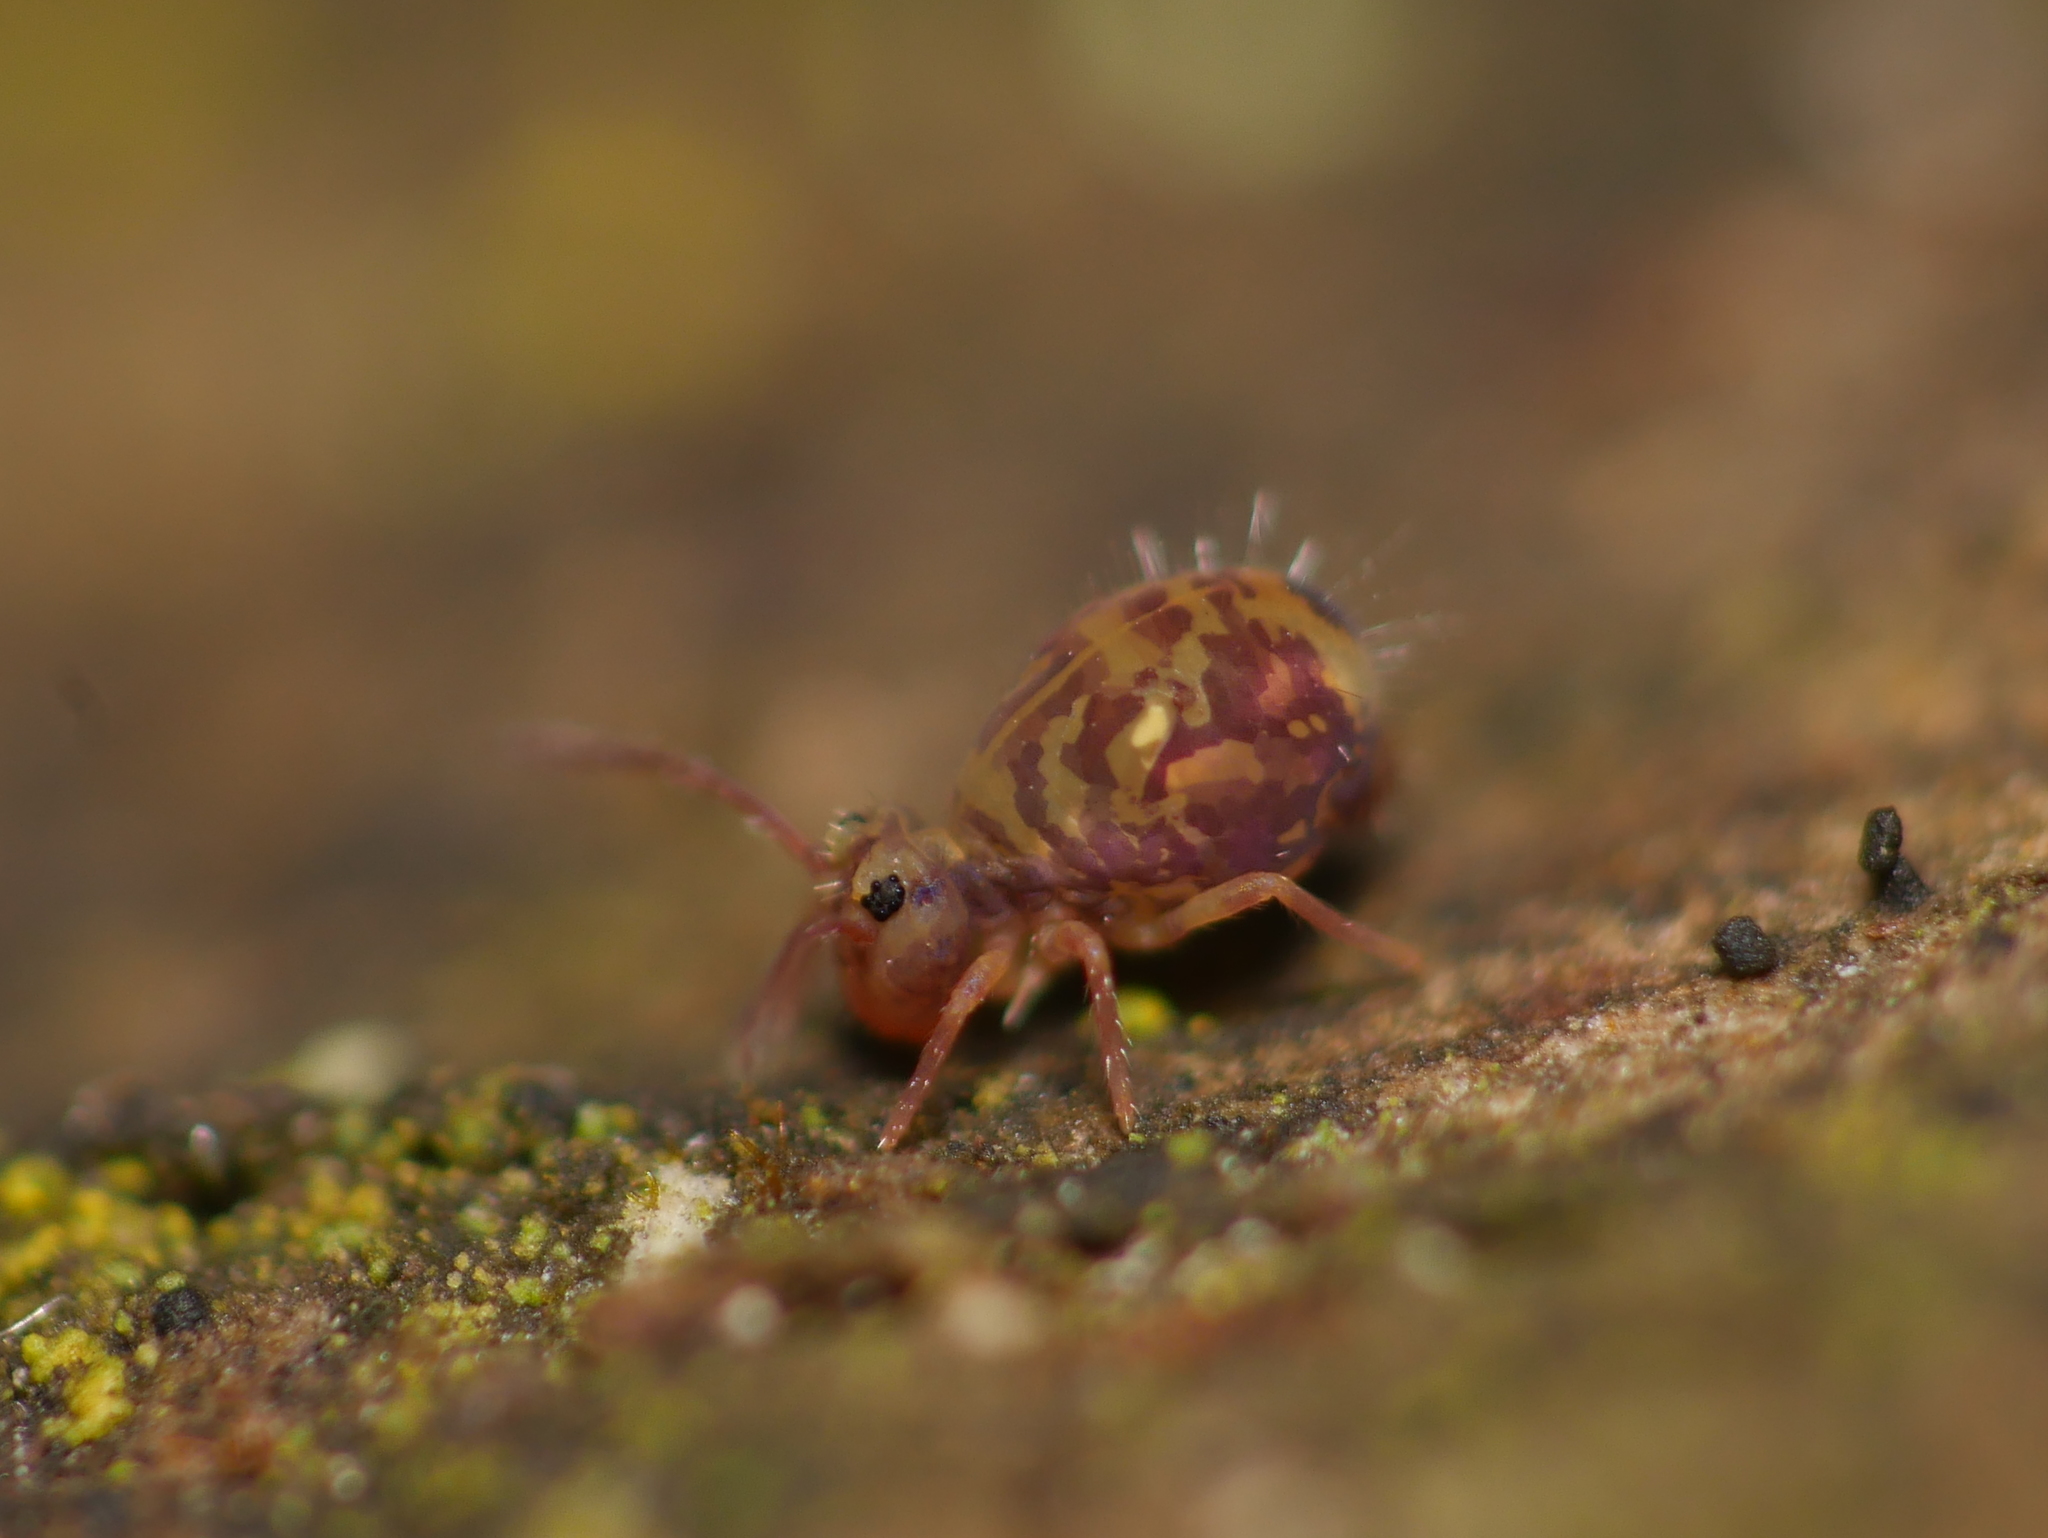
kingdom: Animalia
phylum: Arthropoda
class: Collembola
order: Symphypleona
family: Dicyrtomidae
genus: Dicyrtomina
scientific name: Dicyrtomina ornata
